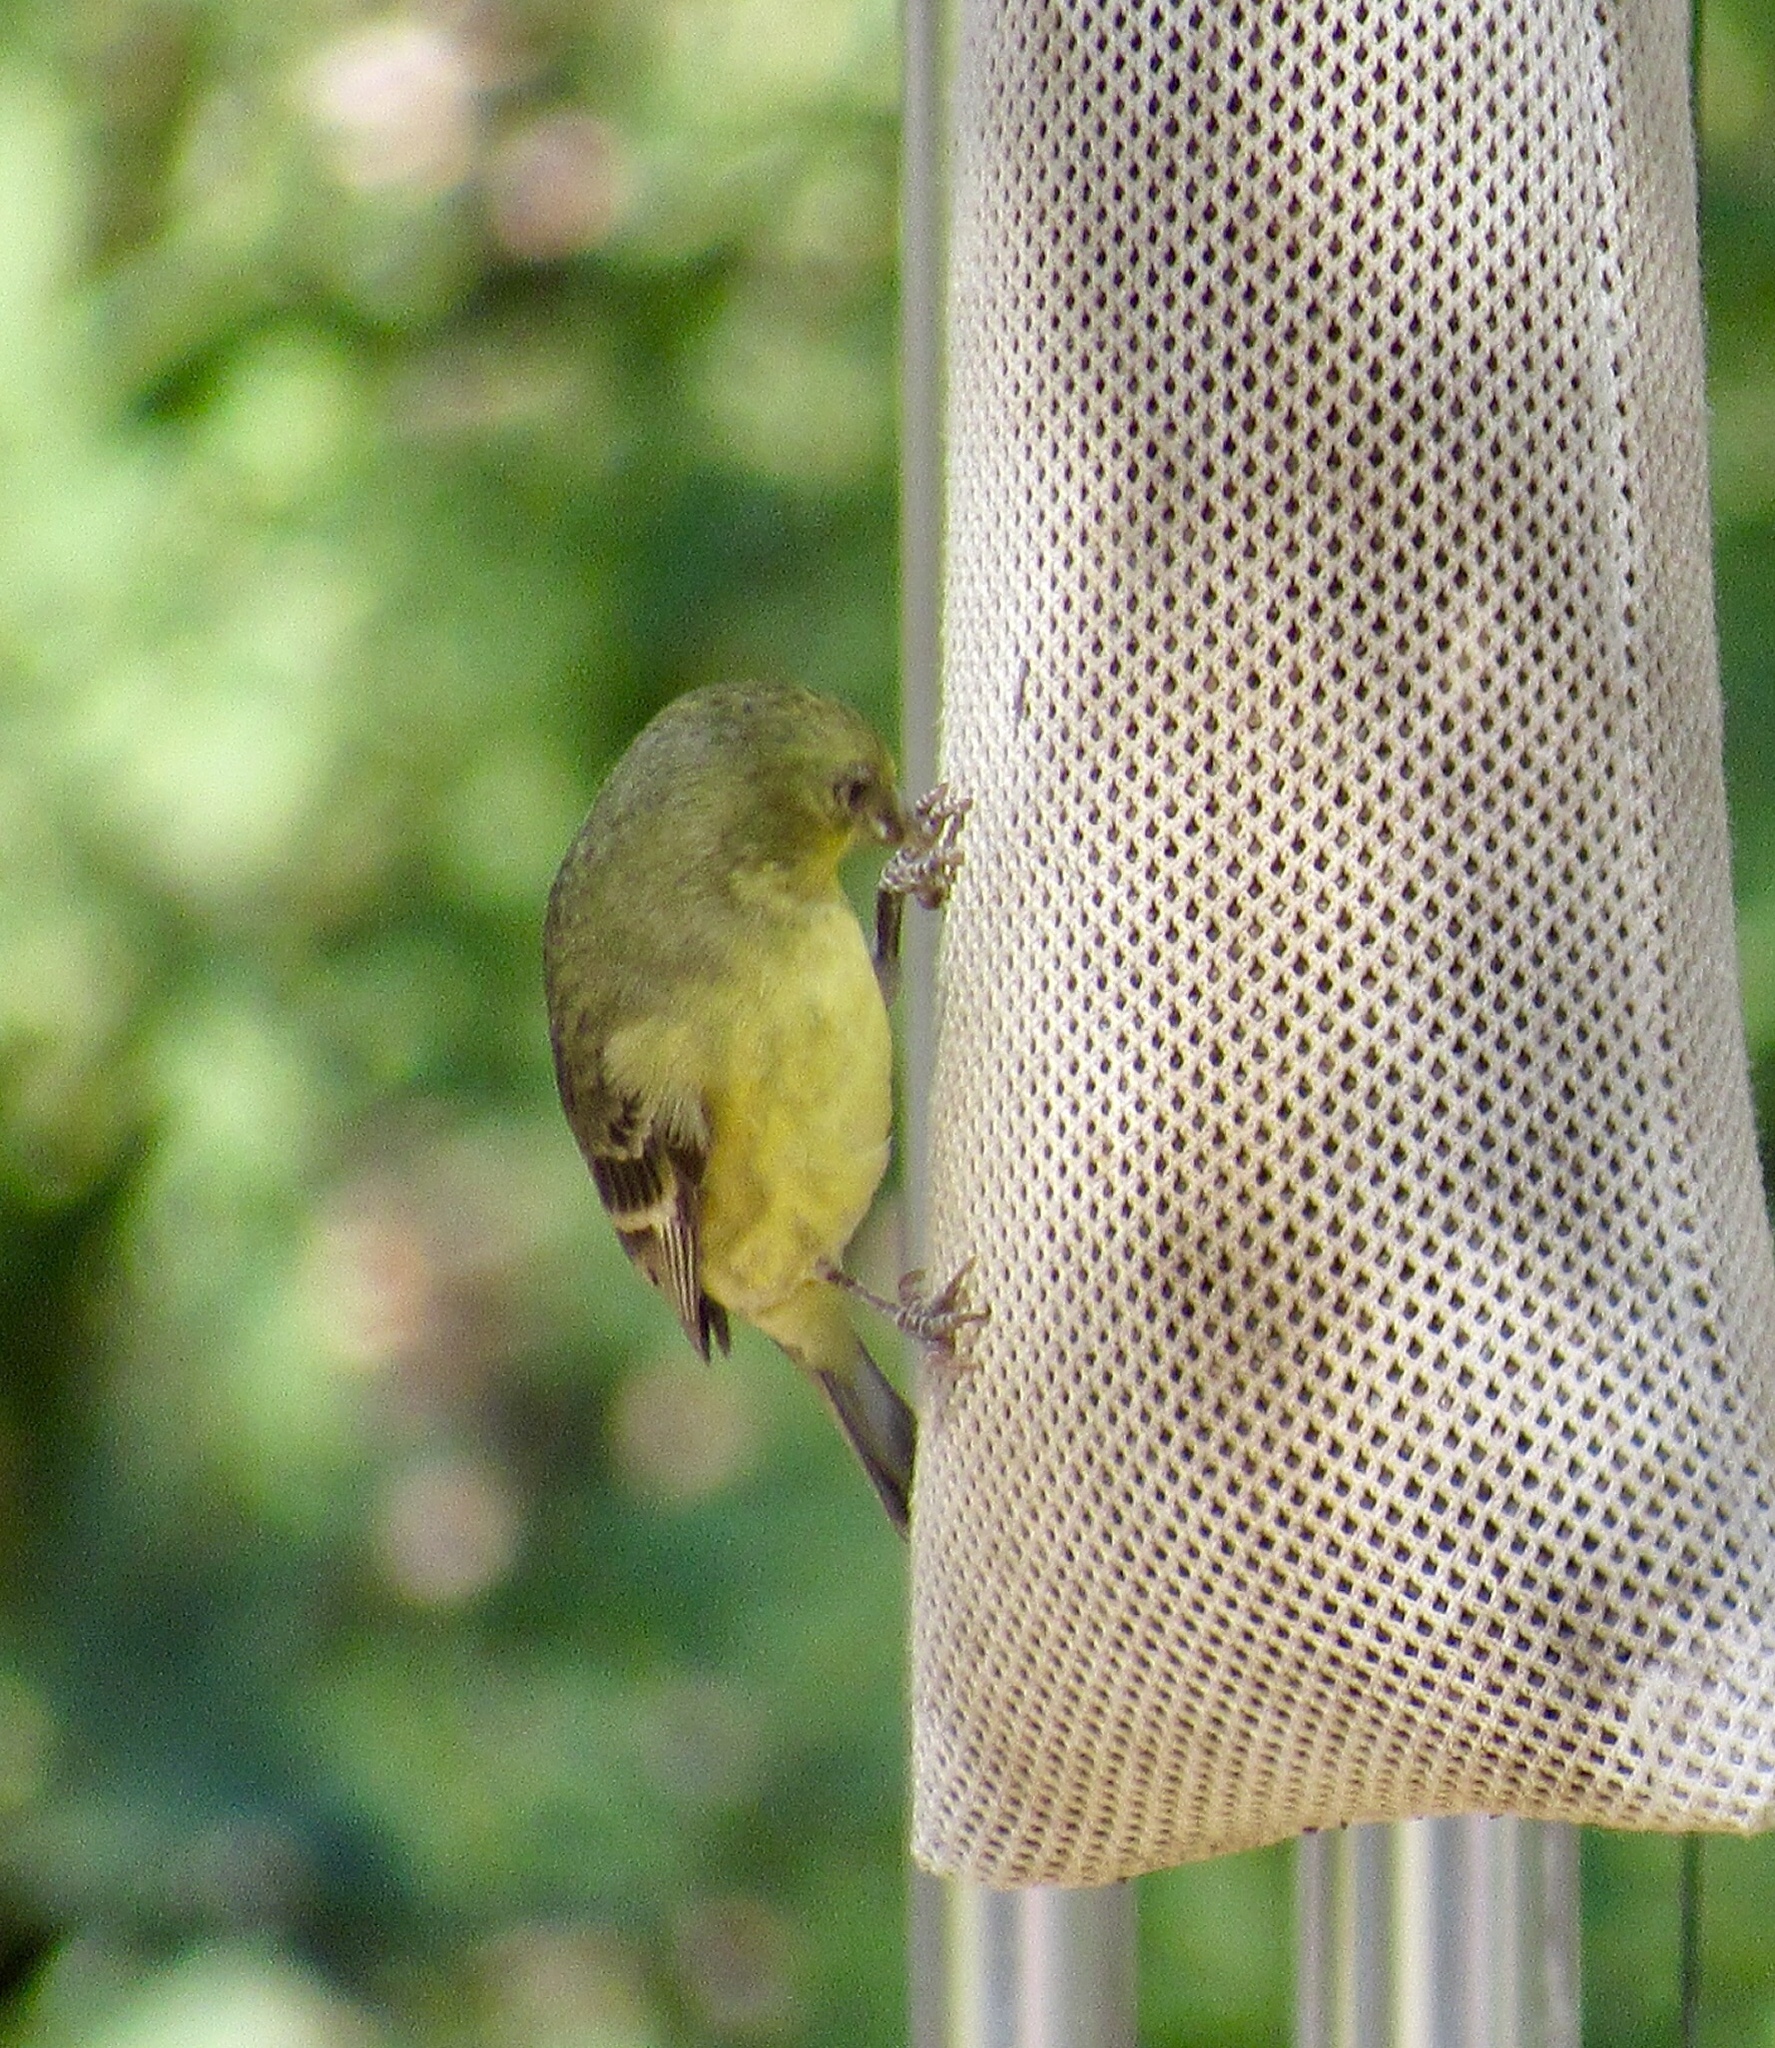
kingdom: Animalia
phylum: Chordata
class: Aves
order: Passeriformes
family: Fringillidae
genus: Spinus
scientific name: Spinus psaltria
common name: Lesser goldfinch
